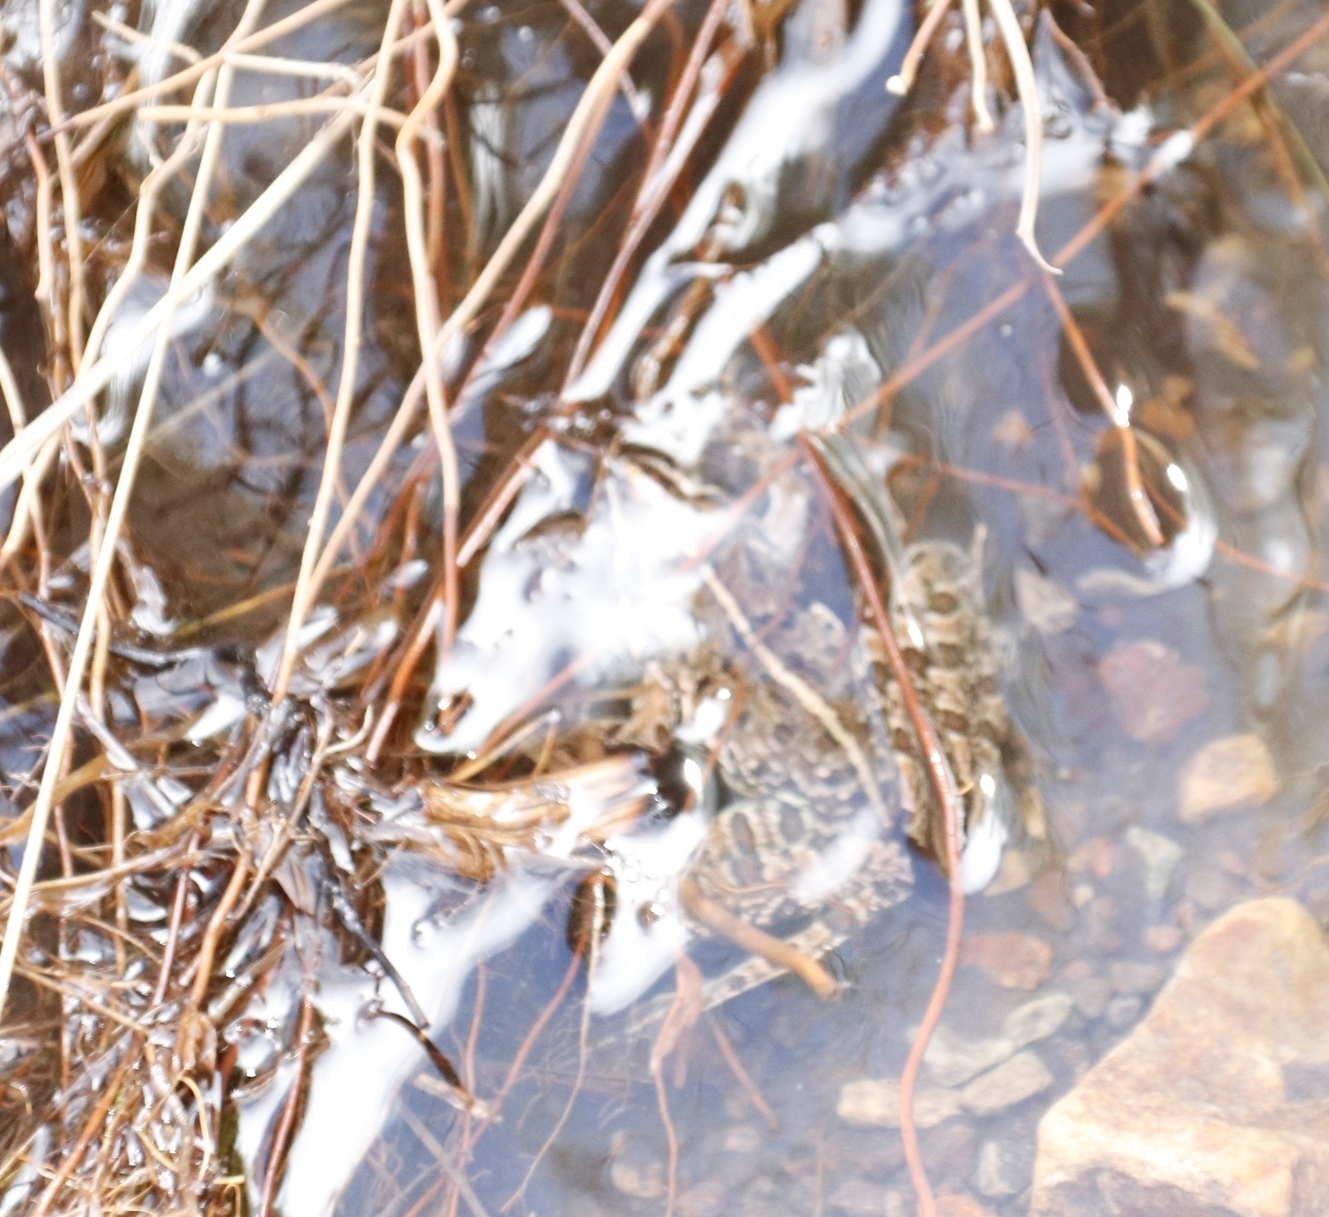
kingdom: Animalia
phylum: Chordata
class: Amphibia
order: Anura
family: Pyxicephalidae
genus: Amietia
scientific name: Amietia delalandii
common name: Delalande's river frog
